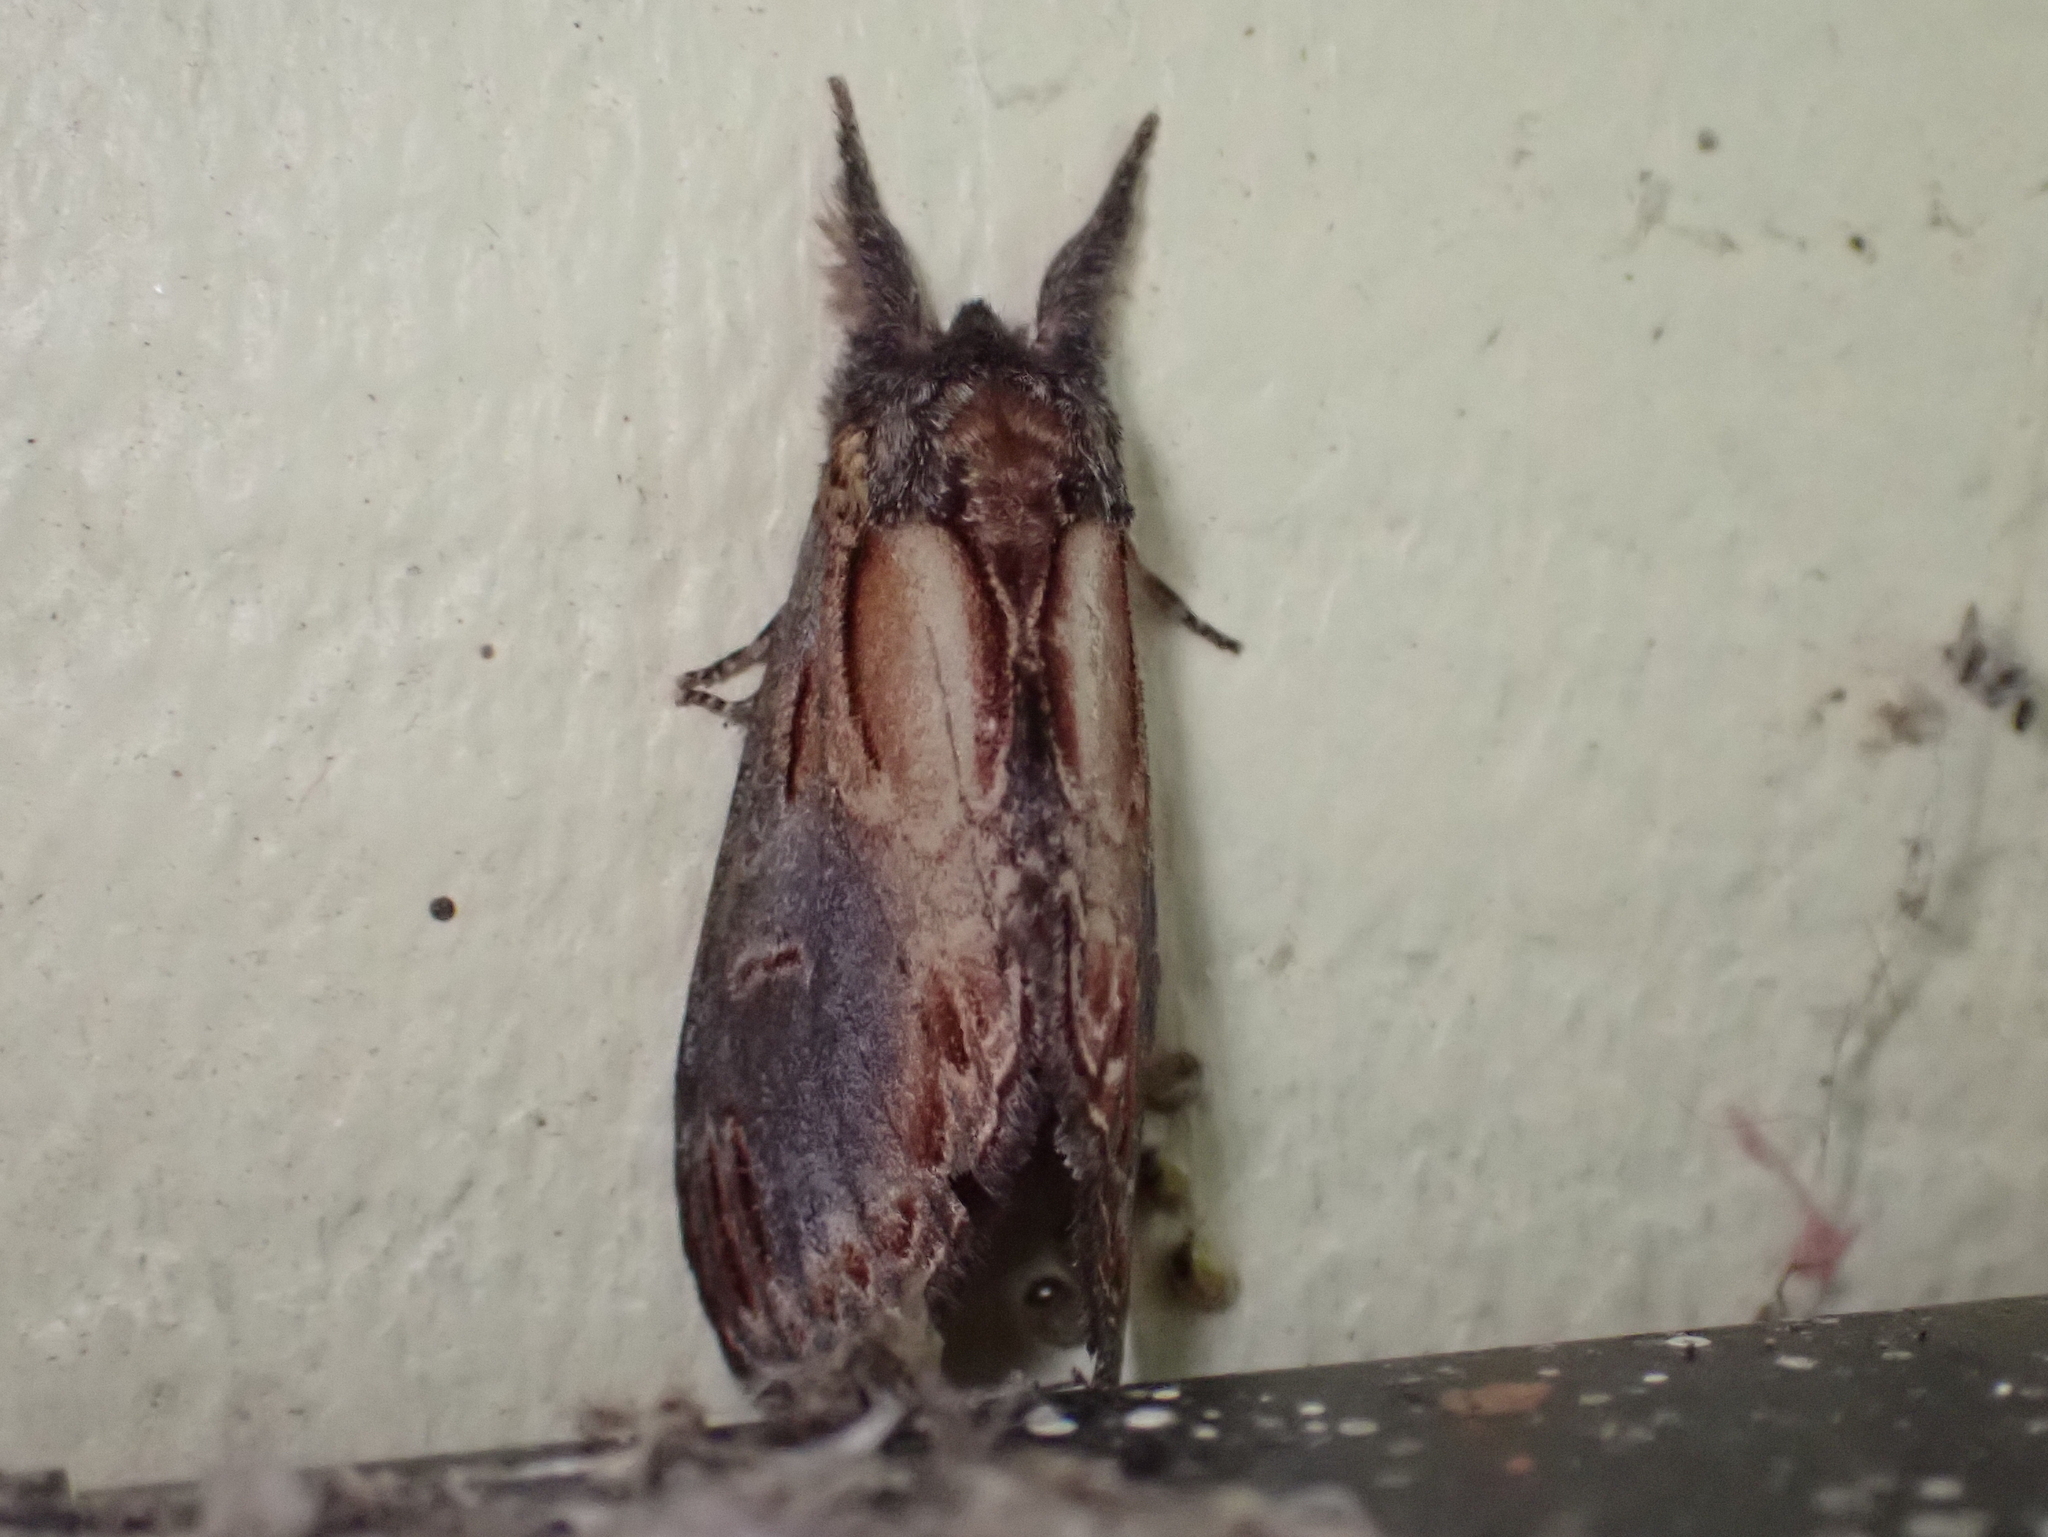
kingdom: Animalia
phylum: Arthropoda
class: Insecta
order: Lepidoptera
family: Notodontidae
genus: Notodonta
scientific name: Notodonta scitipennis
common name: Finned-willow prominent moth
